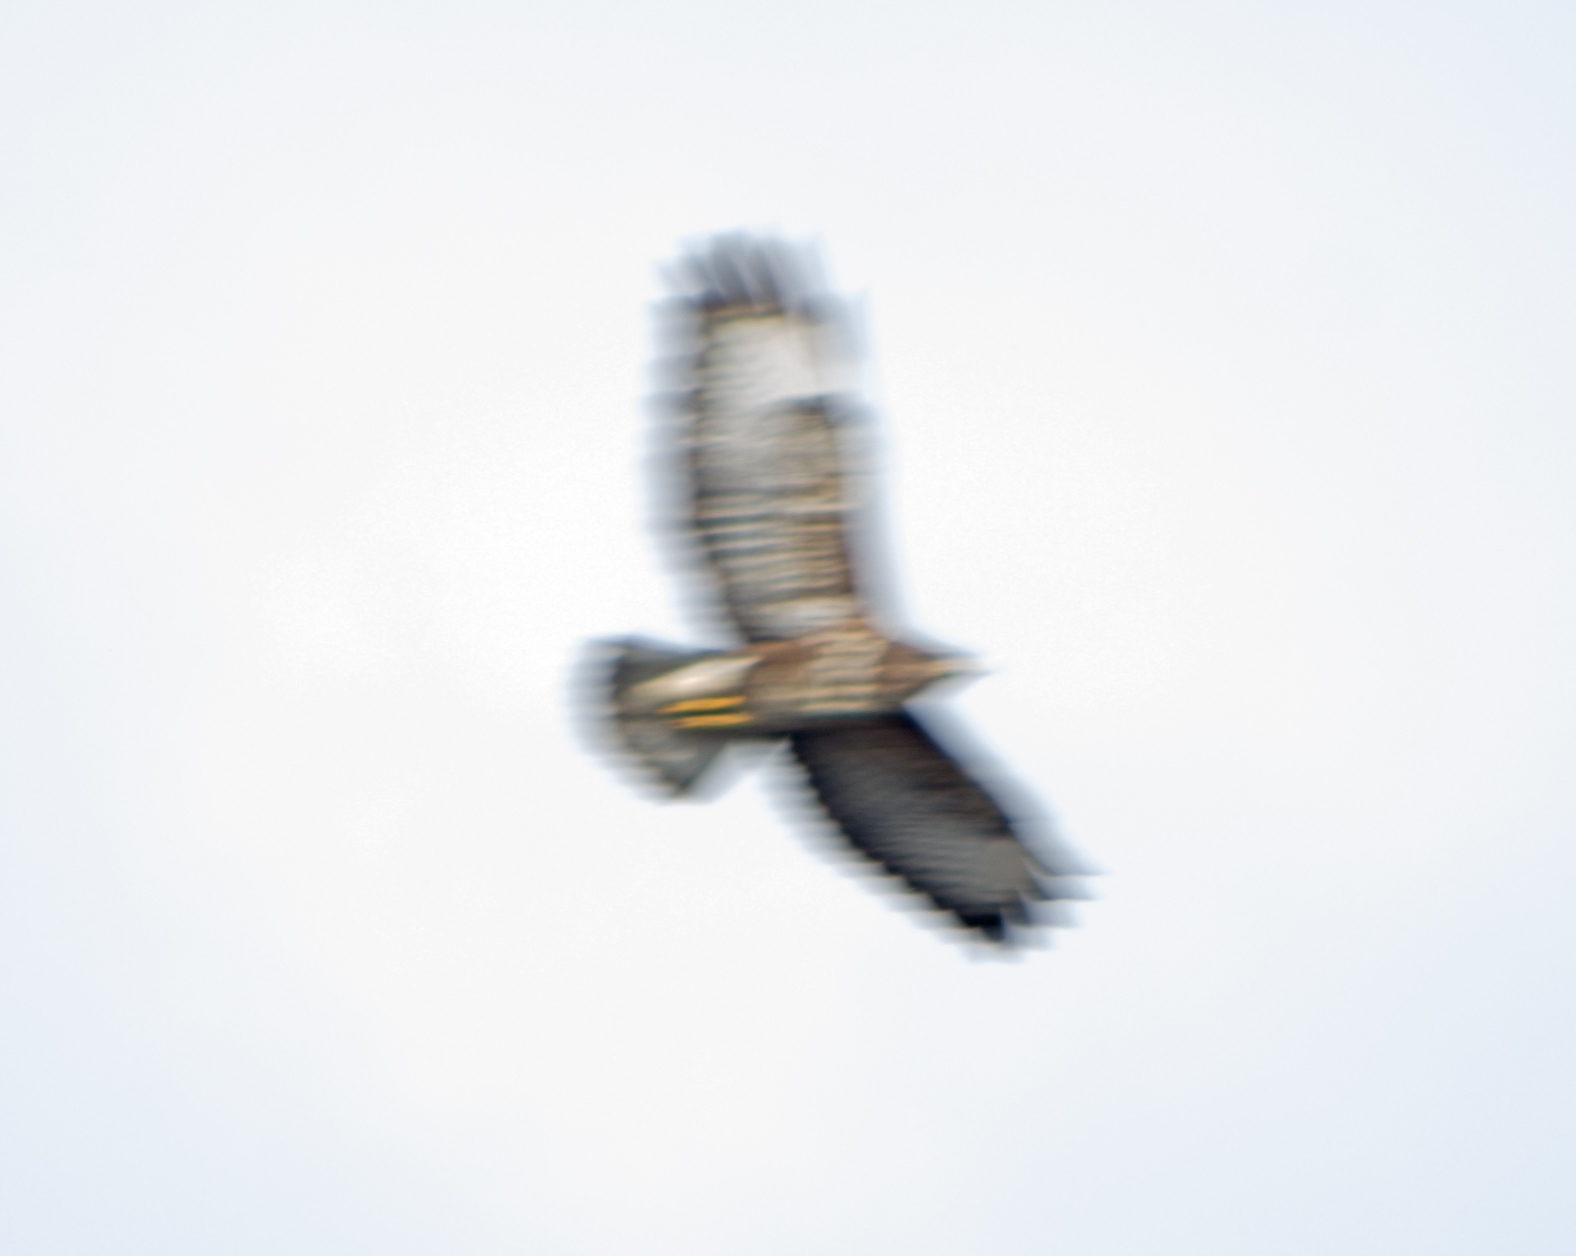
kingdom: Animalia
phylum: Chordata
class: Aves
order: Accipitriformes
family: Accipitridae
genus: Buteo
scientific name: Buteo buteo
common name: Common buzzard
